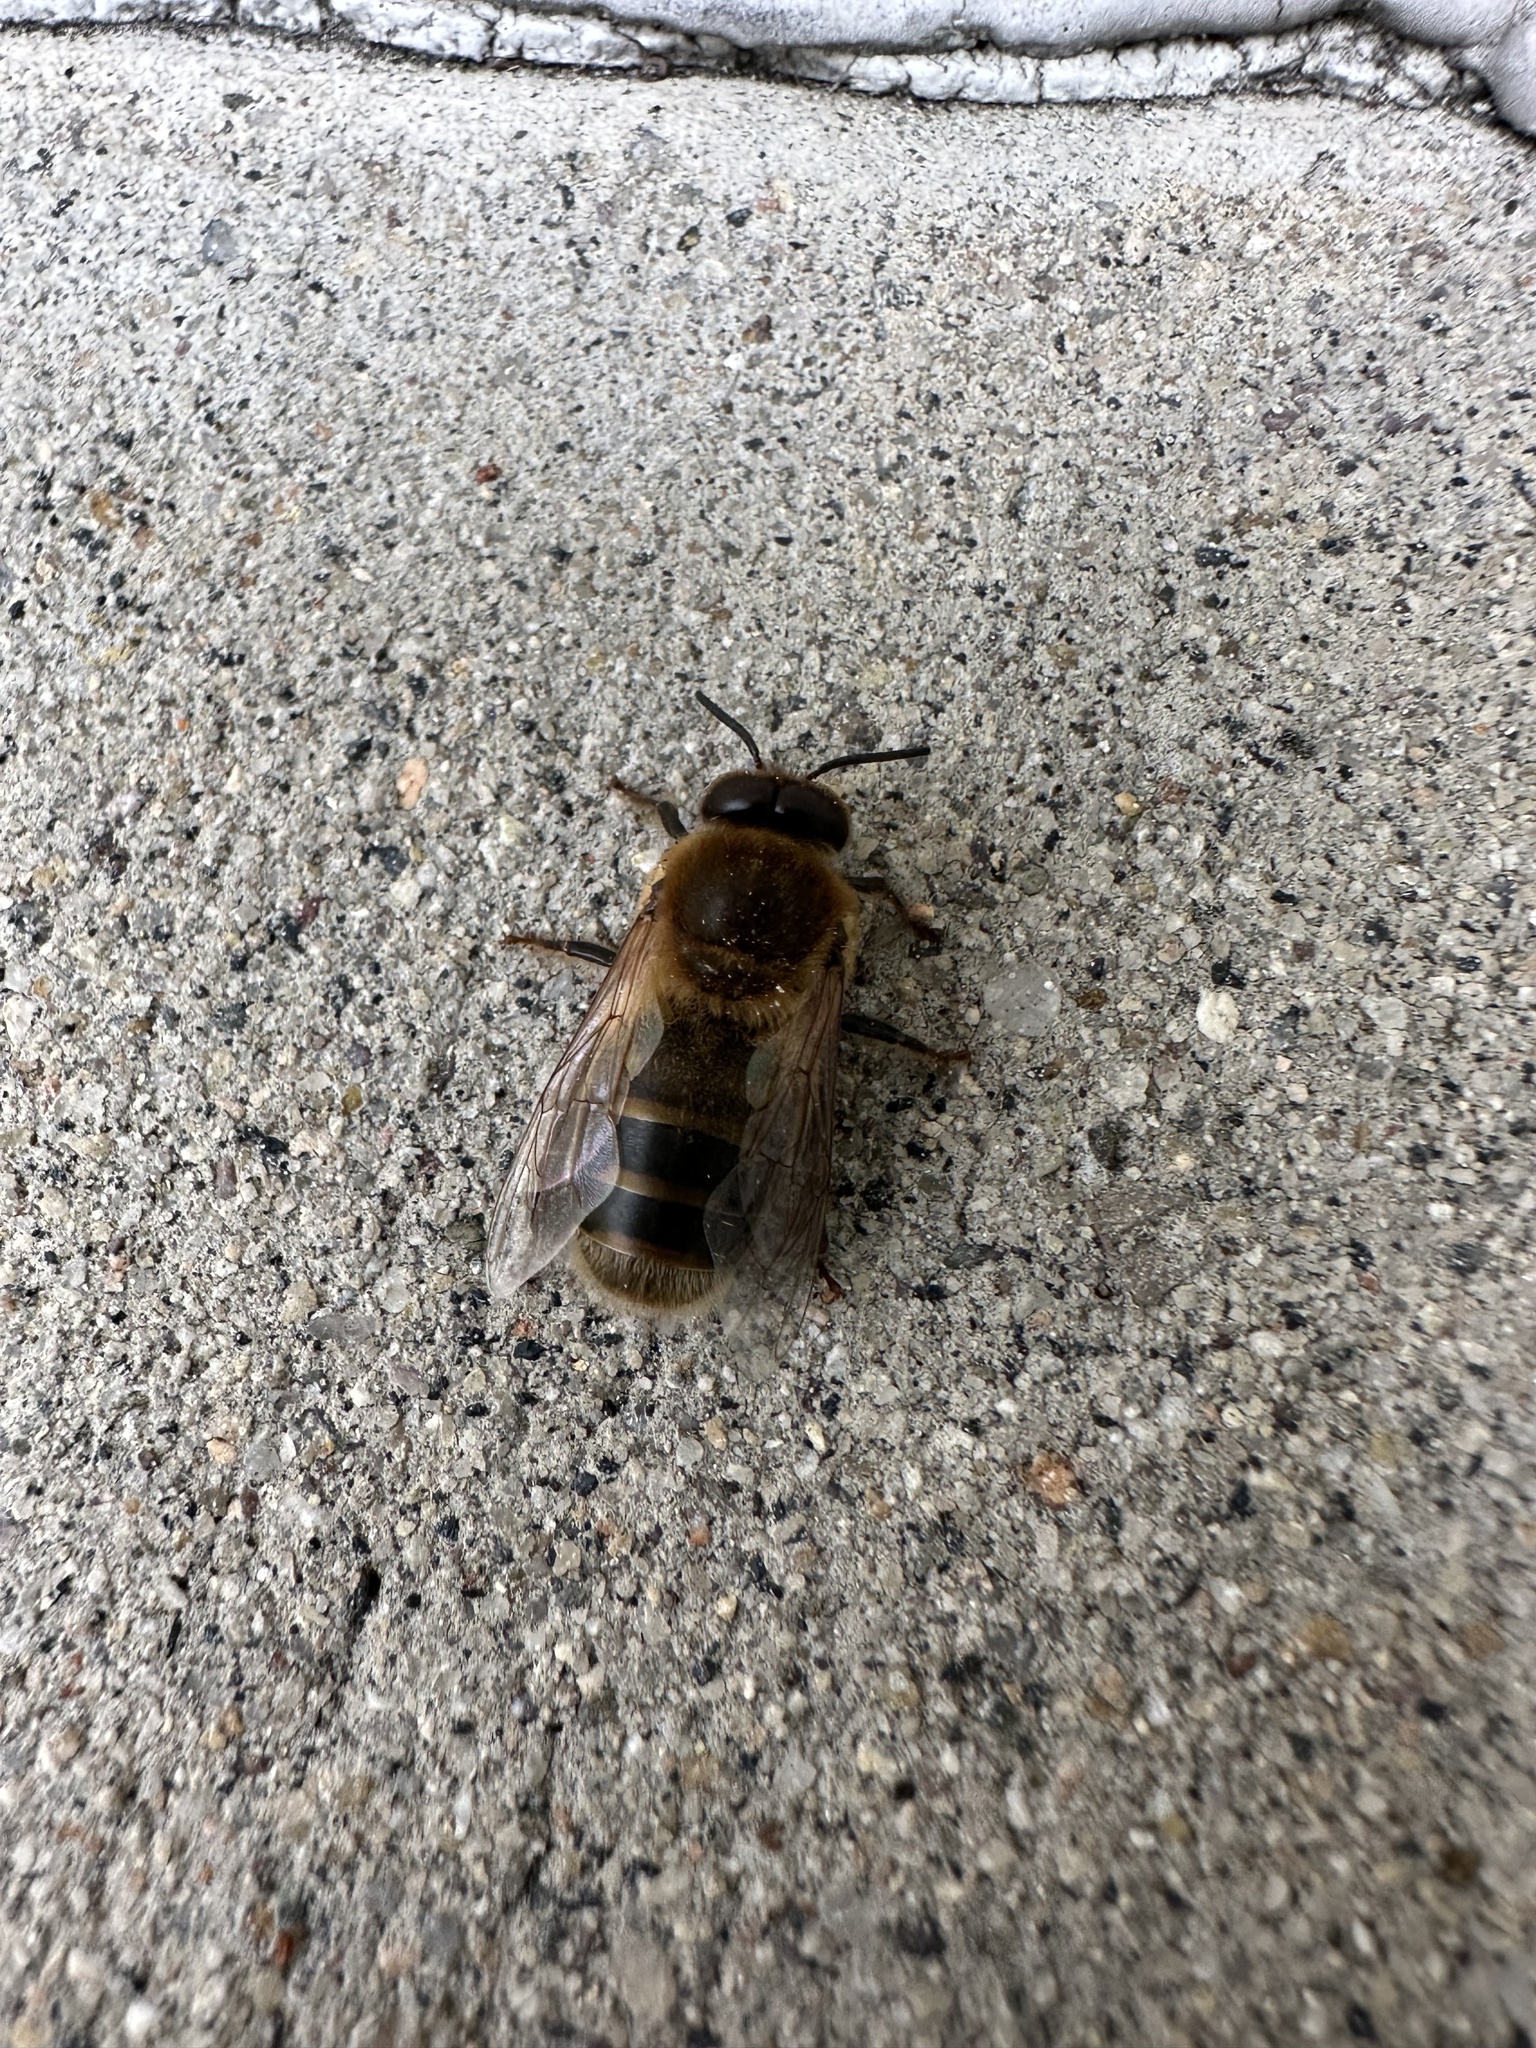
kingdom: Animalia
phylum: Arthropoda
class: Insecta
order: Hymenoptera
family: Apidae
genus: Apis
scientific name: Apis mellifera
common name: Honey bee
